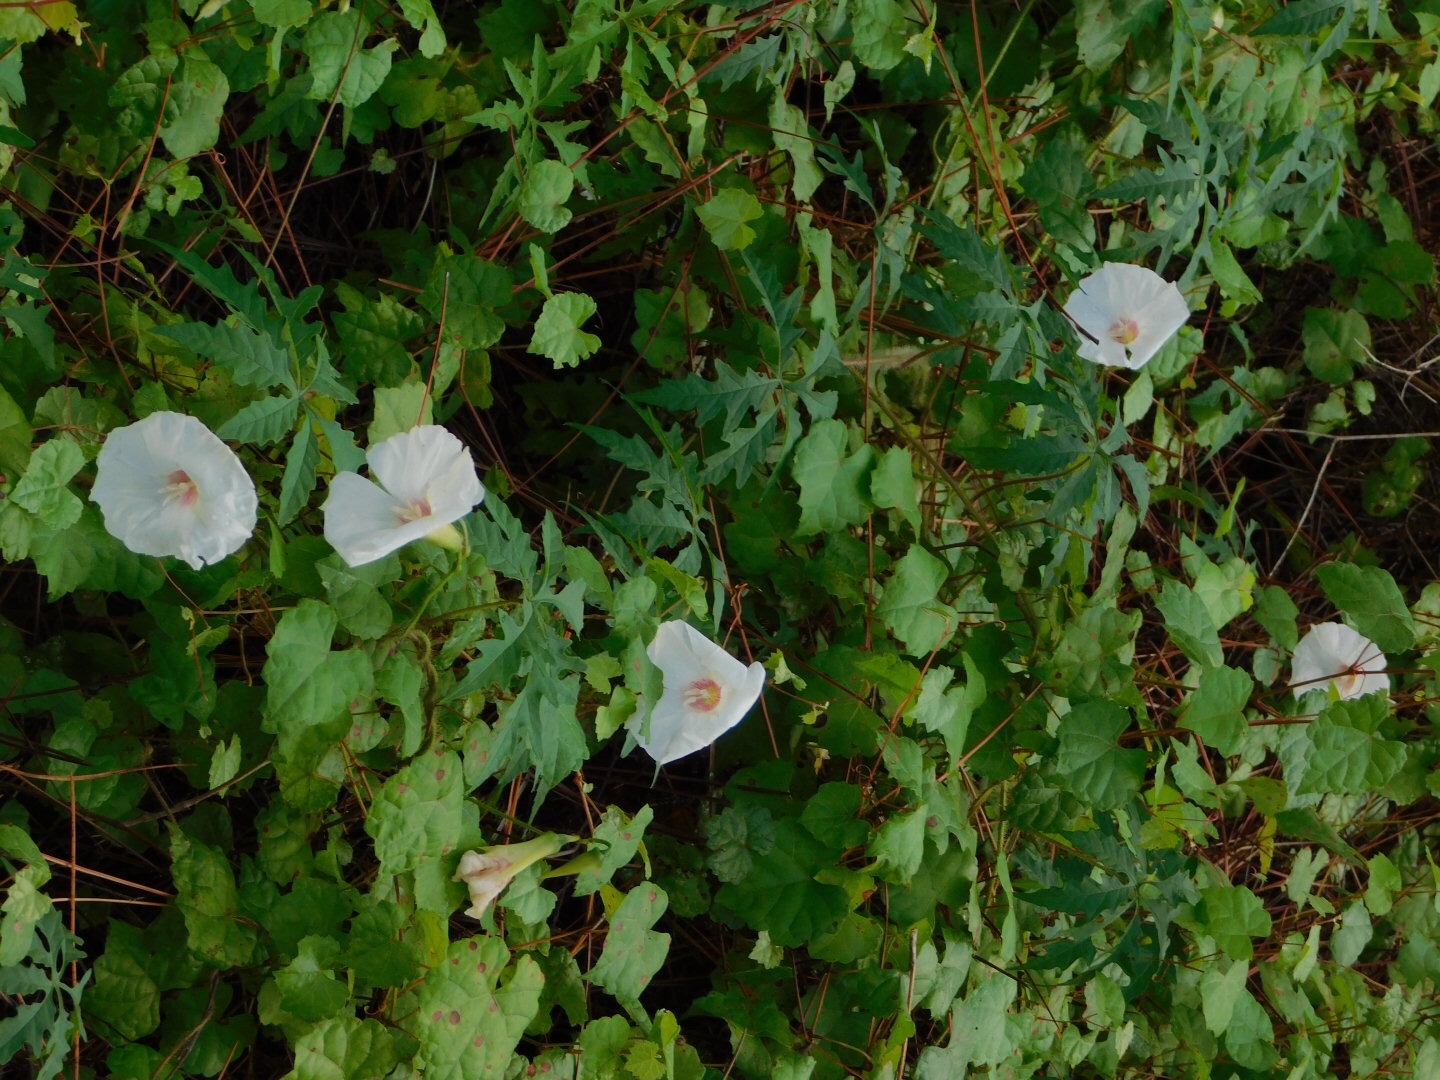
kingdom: Plantae
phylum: Tracheophyta
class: Magnoliopsida
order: Solanales
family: Convolvulaceae
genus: Distimake
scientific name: Distimake dissectus
